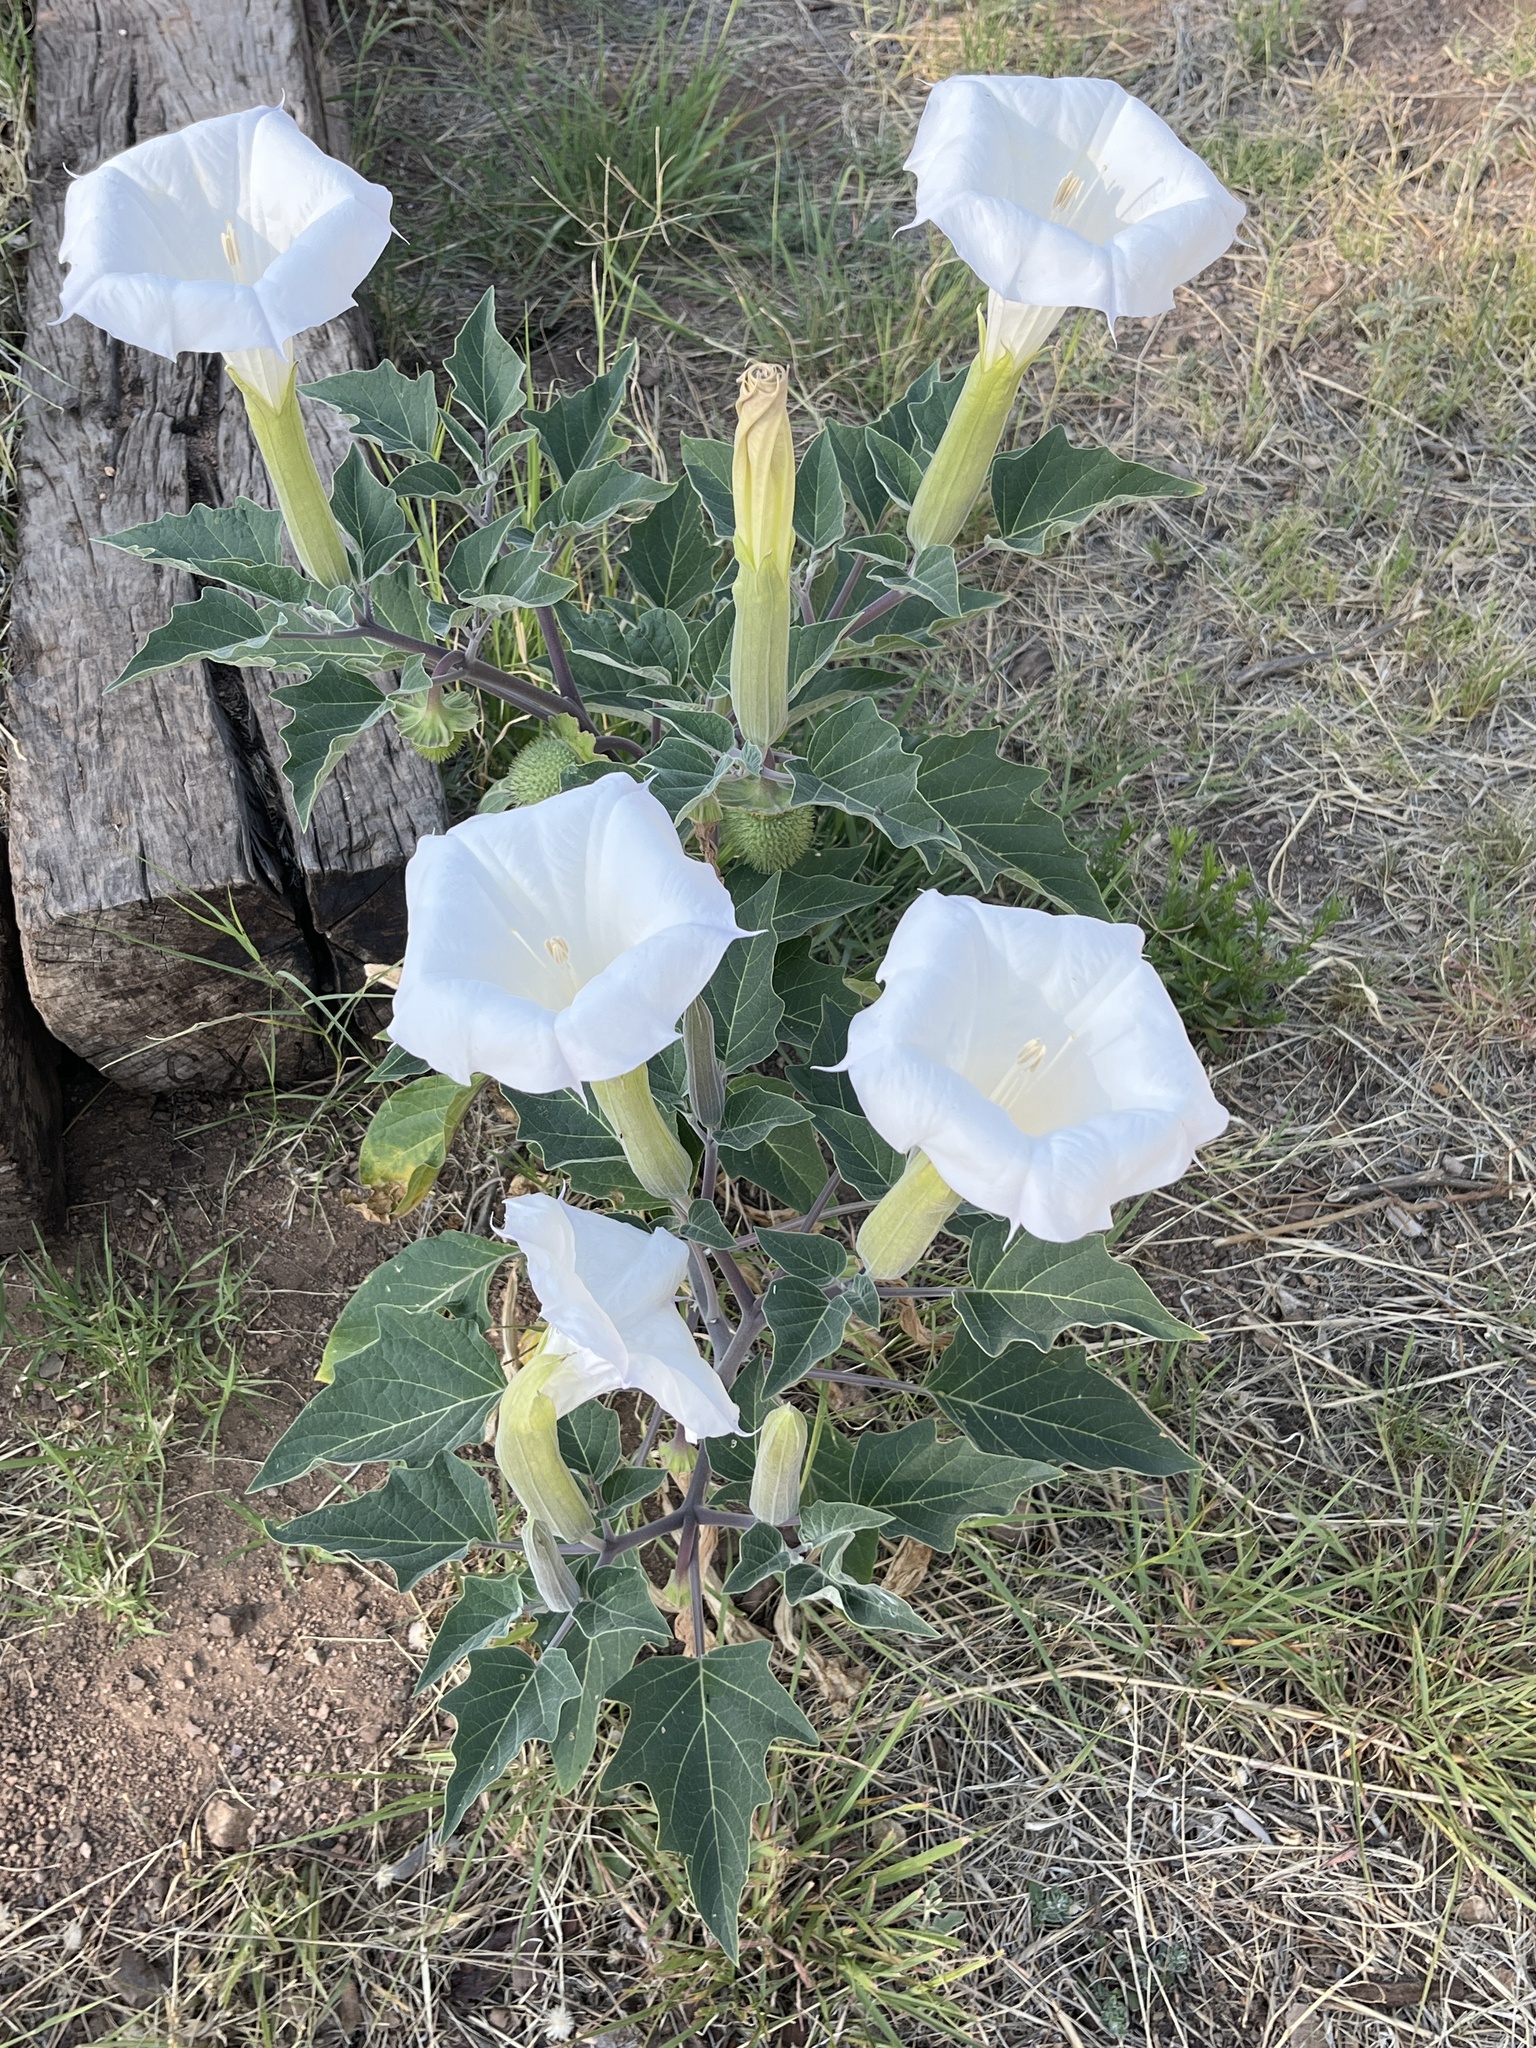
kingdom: Plantae
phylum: Tracheophyta
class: Magnoliopsida
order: Solanales
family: Solanaceae
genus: Datura
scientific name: Datura wrightii
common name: Sacred thorn-apple
